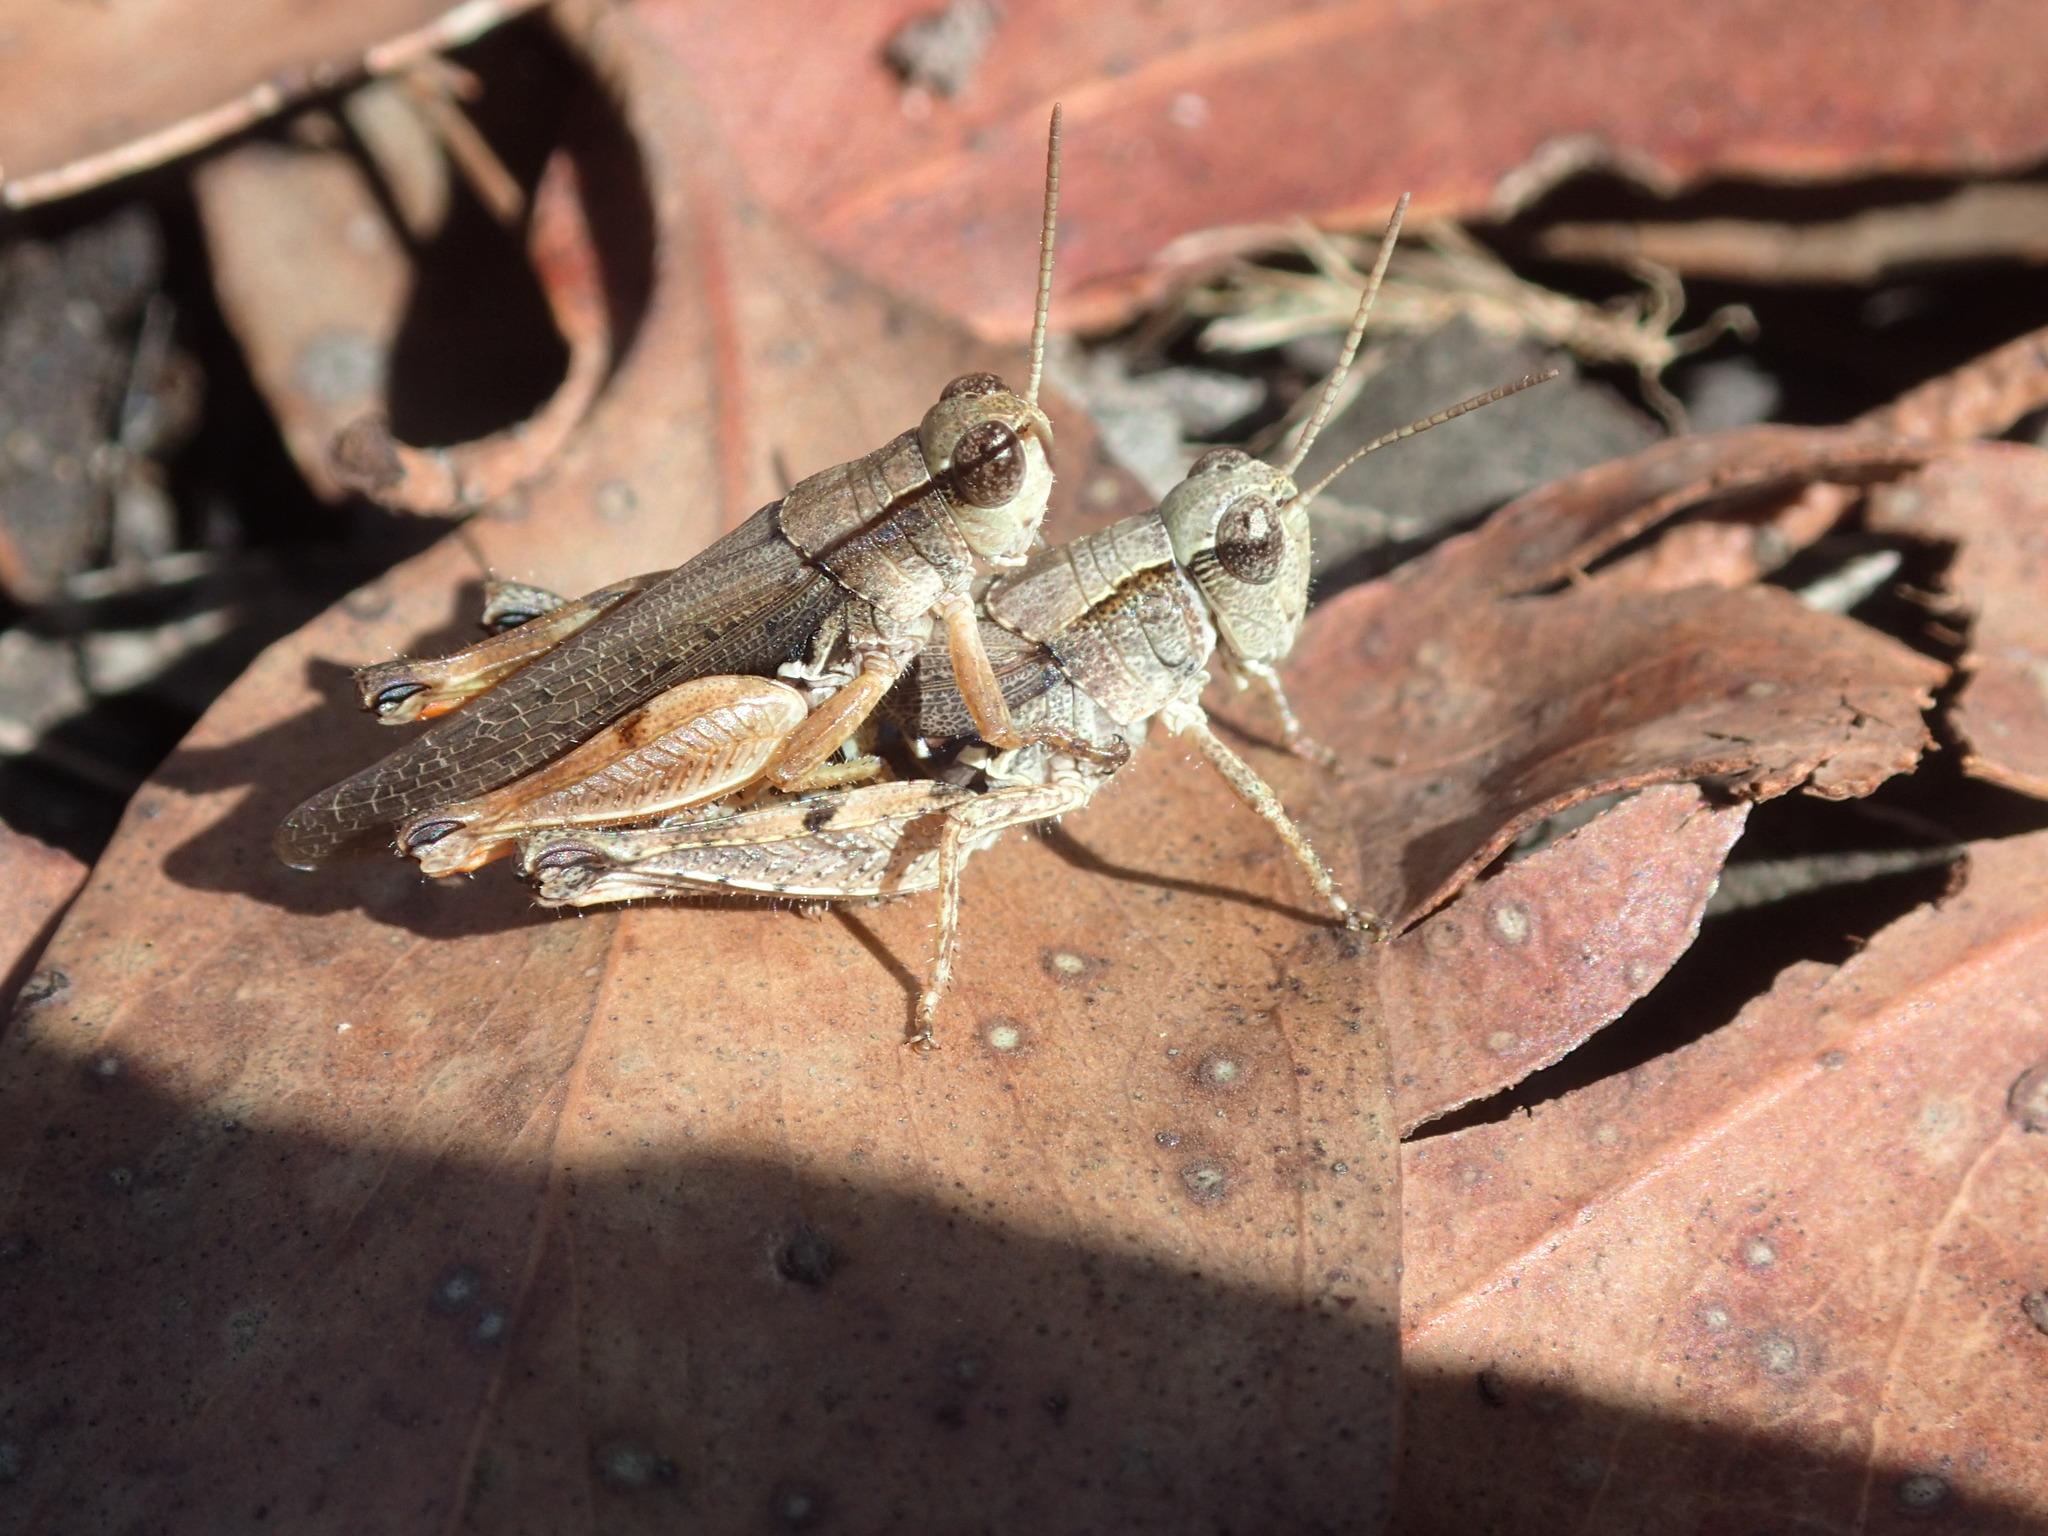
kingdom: Animalia
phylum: Arthropoda
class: Insecta
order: Orthoptera
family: Acrididae
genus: Phaulacridium
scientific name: Phaulacridium vittatum
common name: Wingless grasshopper
